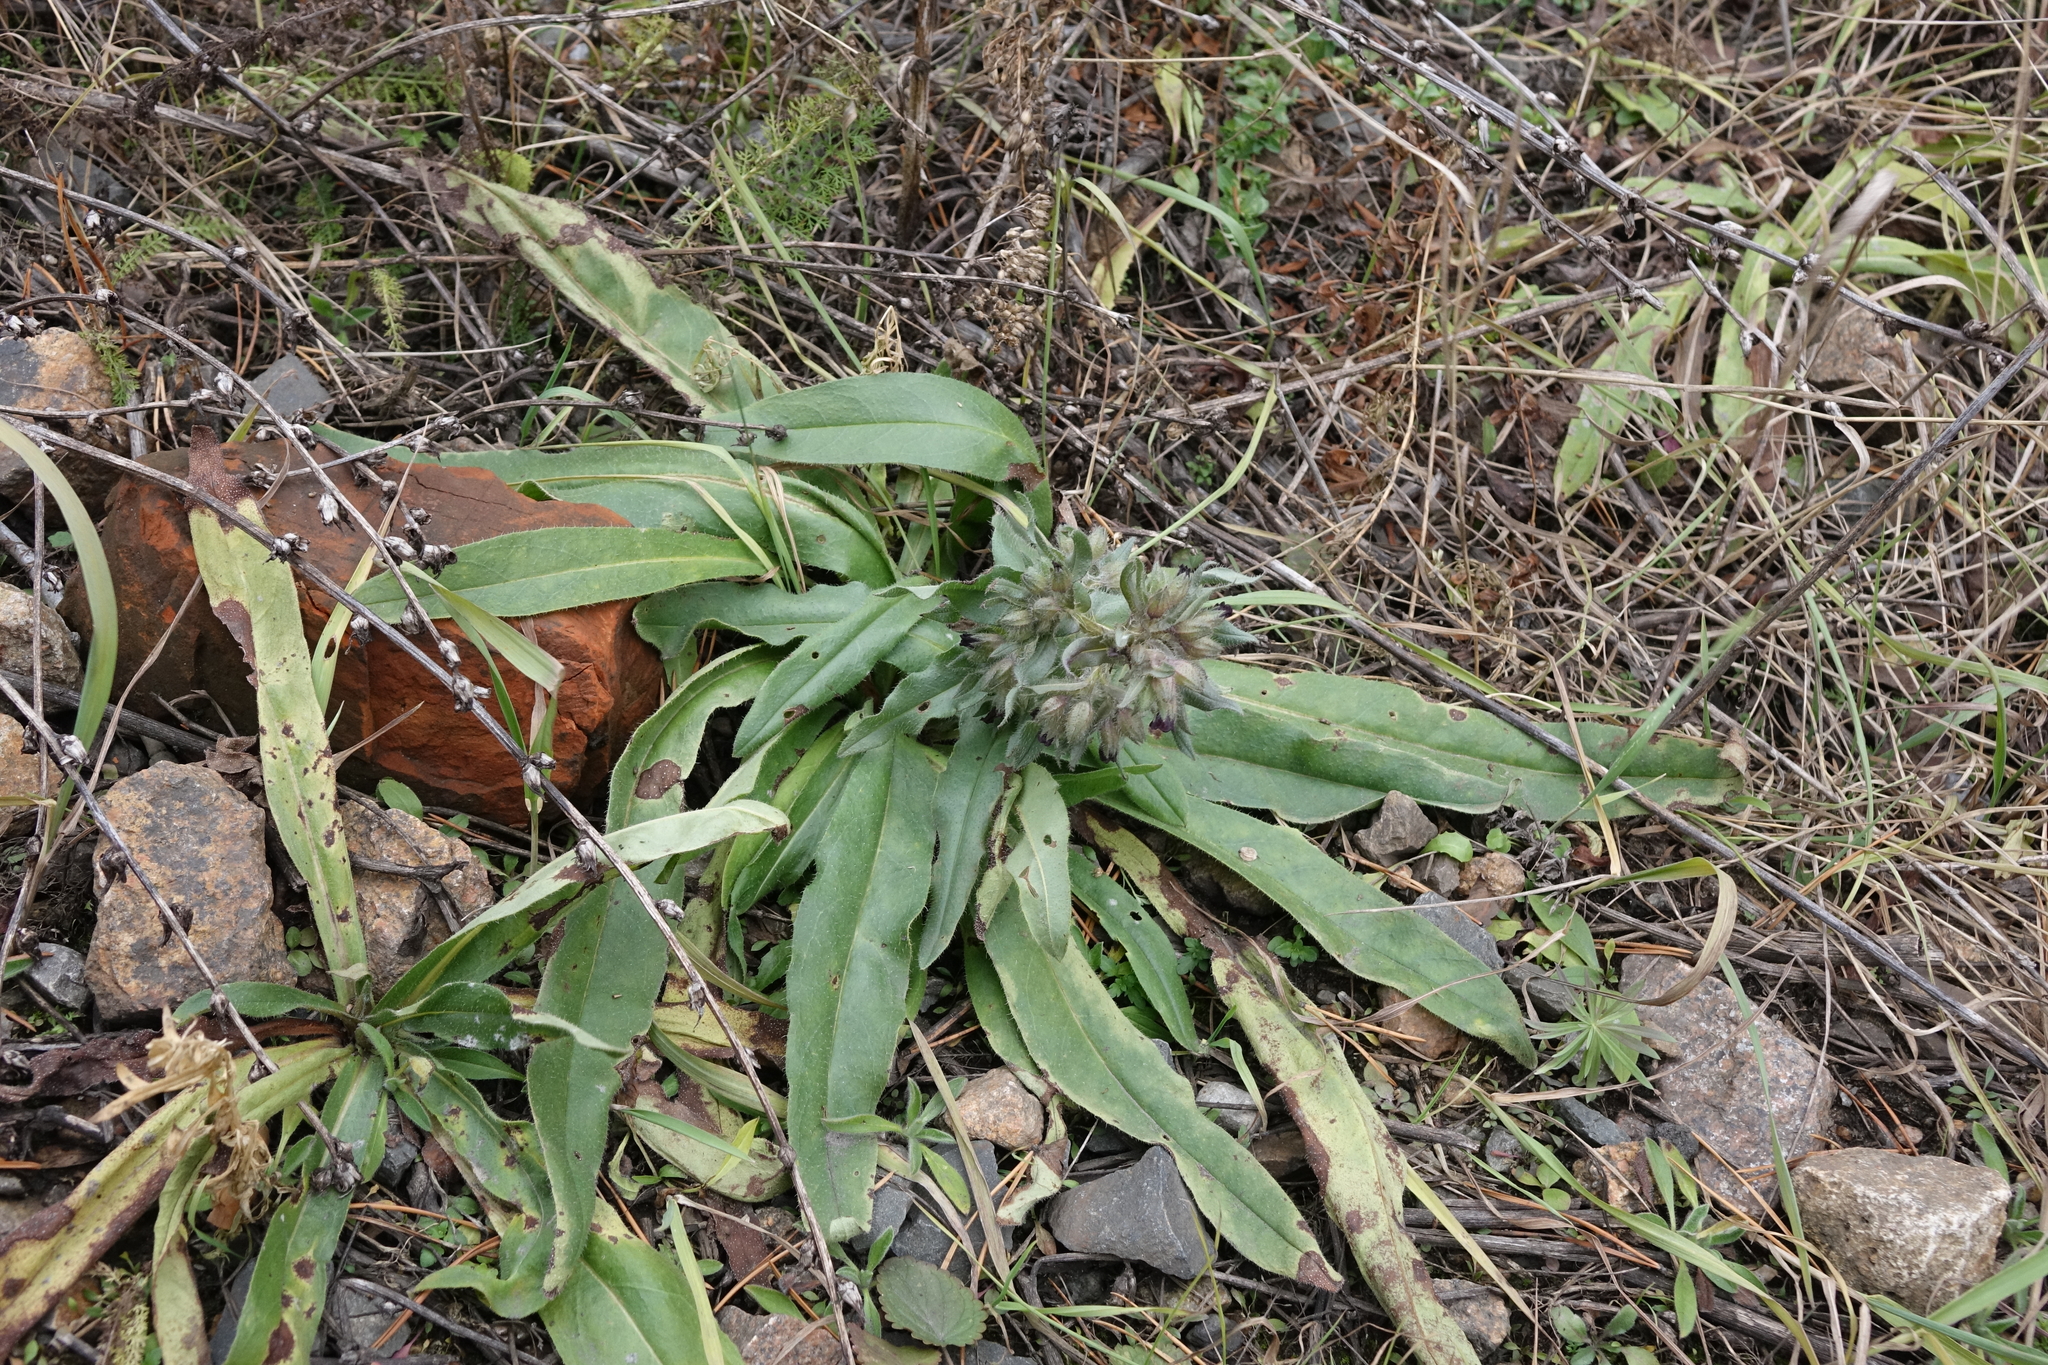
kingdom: Plantae
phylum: Tracheophyta
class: Magnoliopsida
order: Boraginales
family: Boraginaceae
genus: Nonea
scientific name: Nonea pulla
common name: Brown nonea
